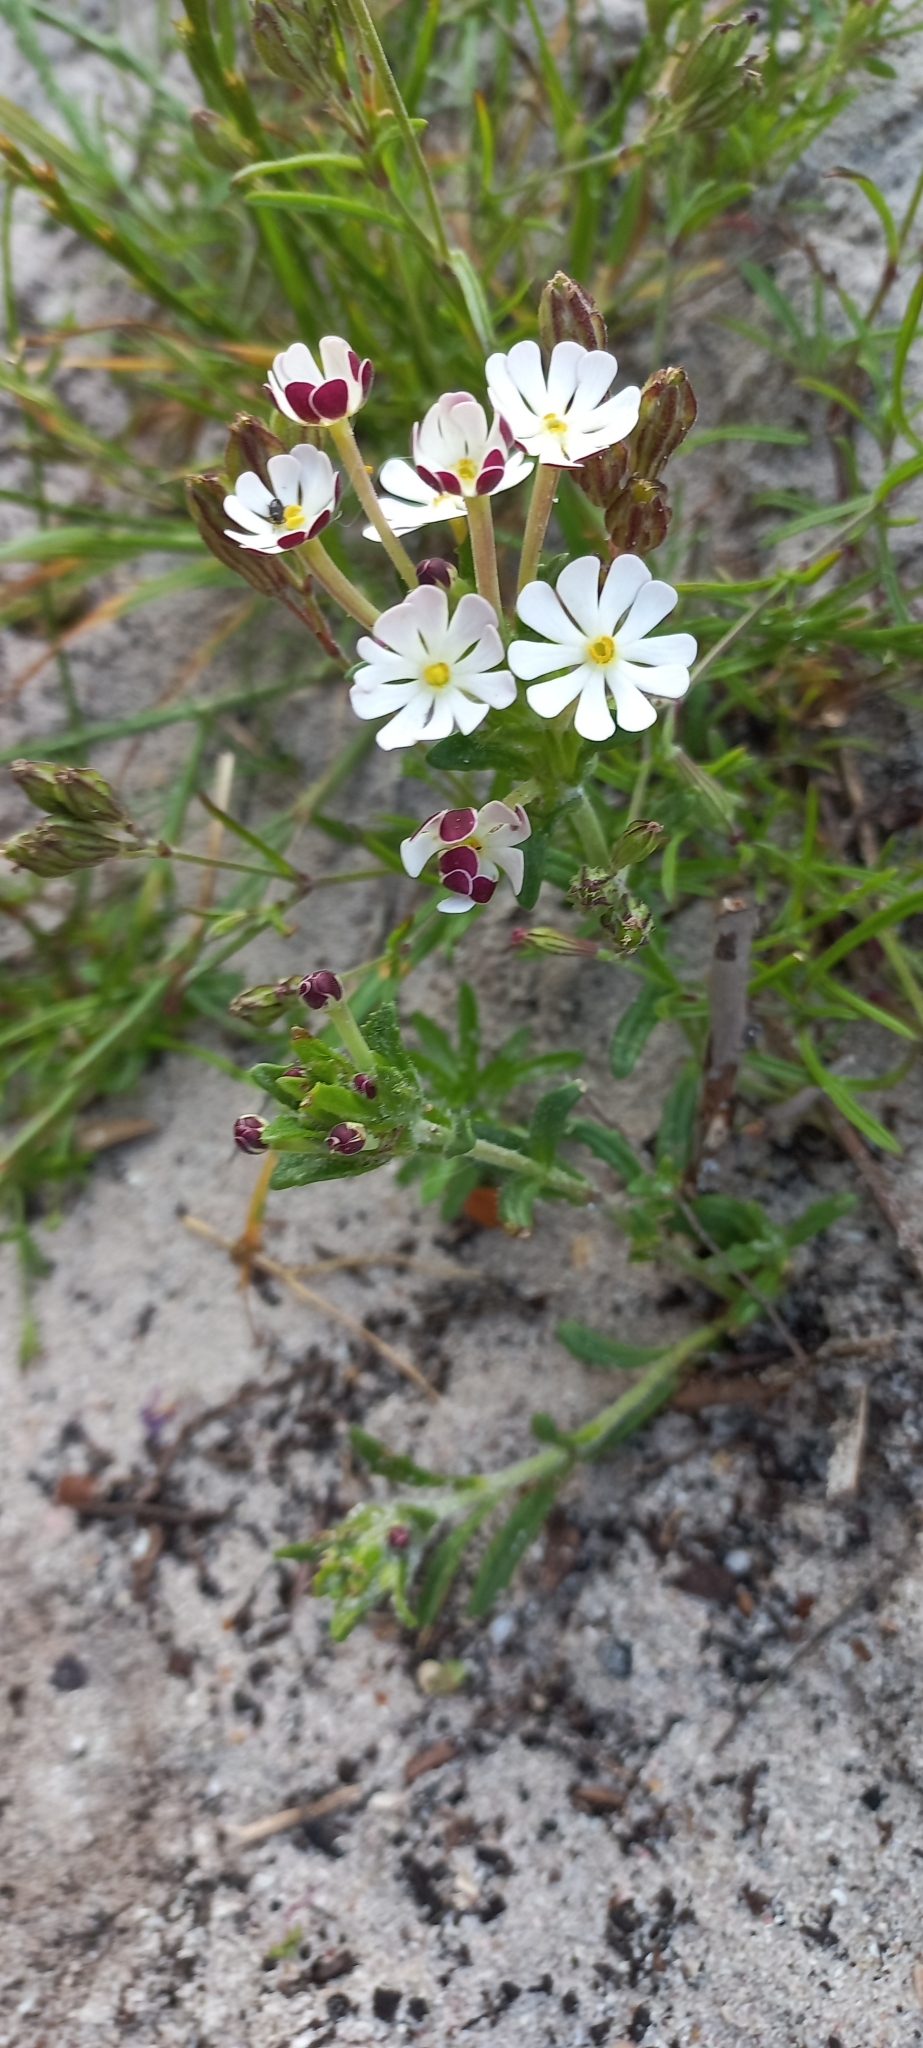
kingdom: Plantae
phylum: Tracheophyta
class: Magnoliopsida
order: Lamiales
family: Scrophulariaceae
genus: Zaluzianskya
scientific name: Zaluzianskya capensis
